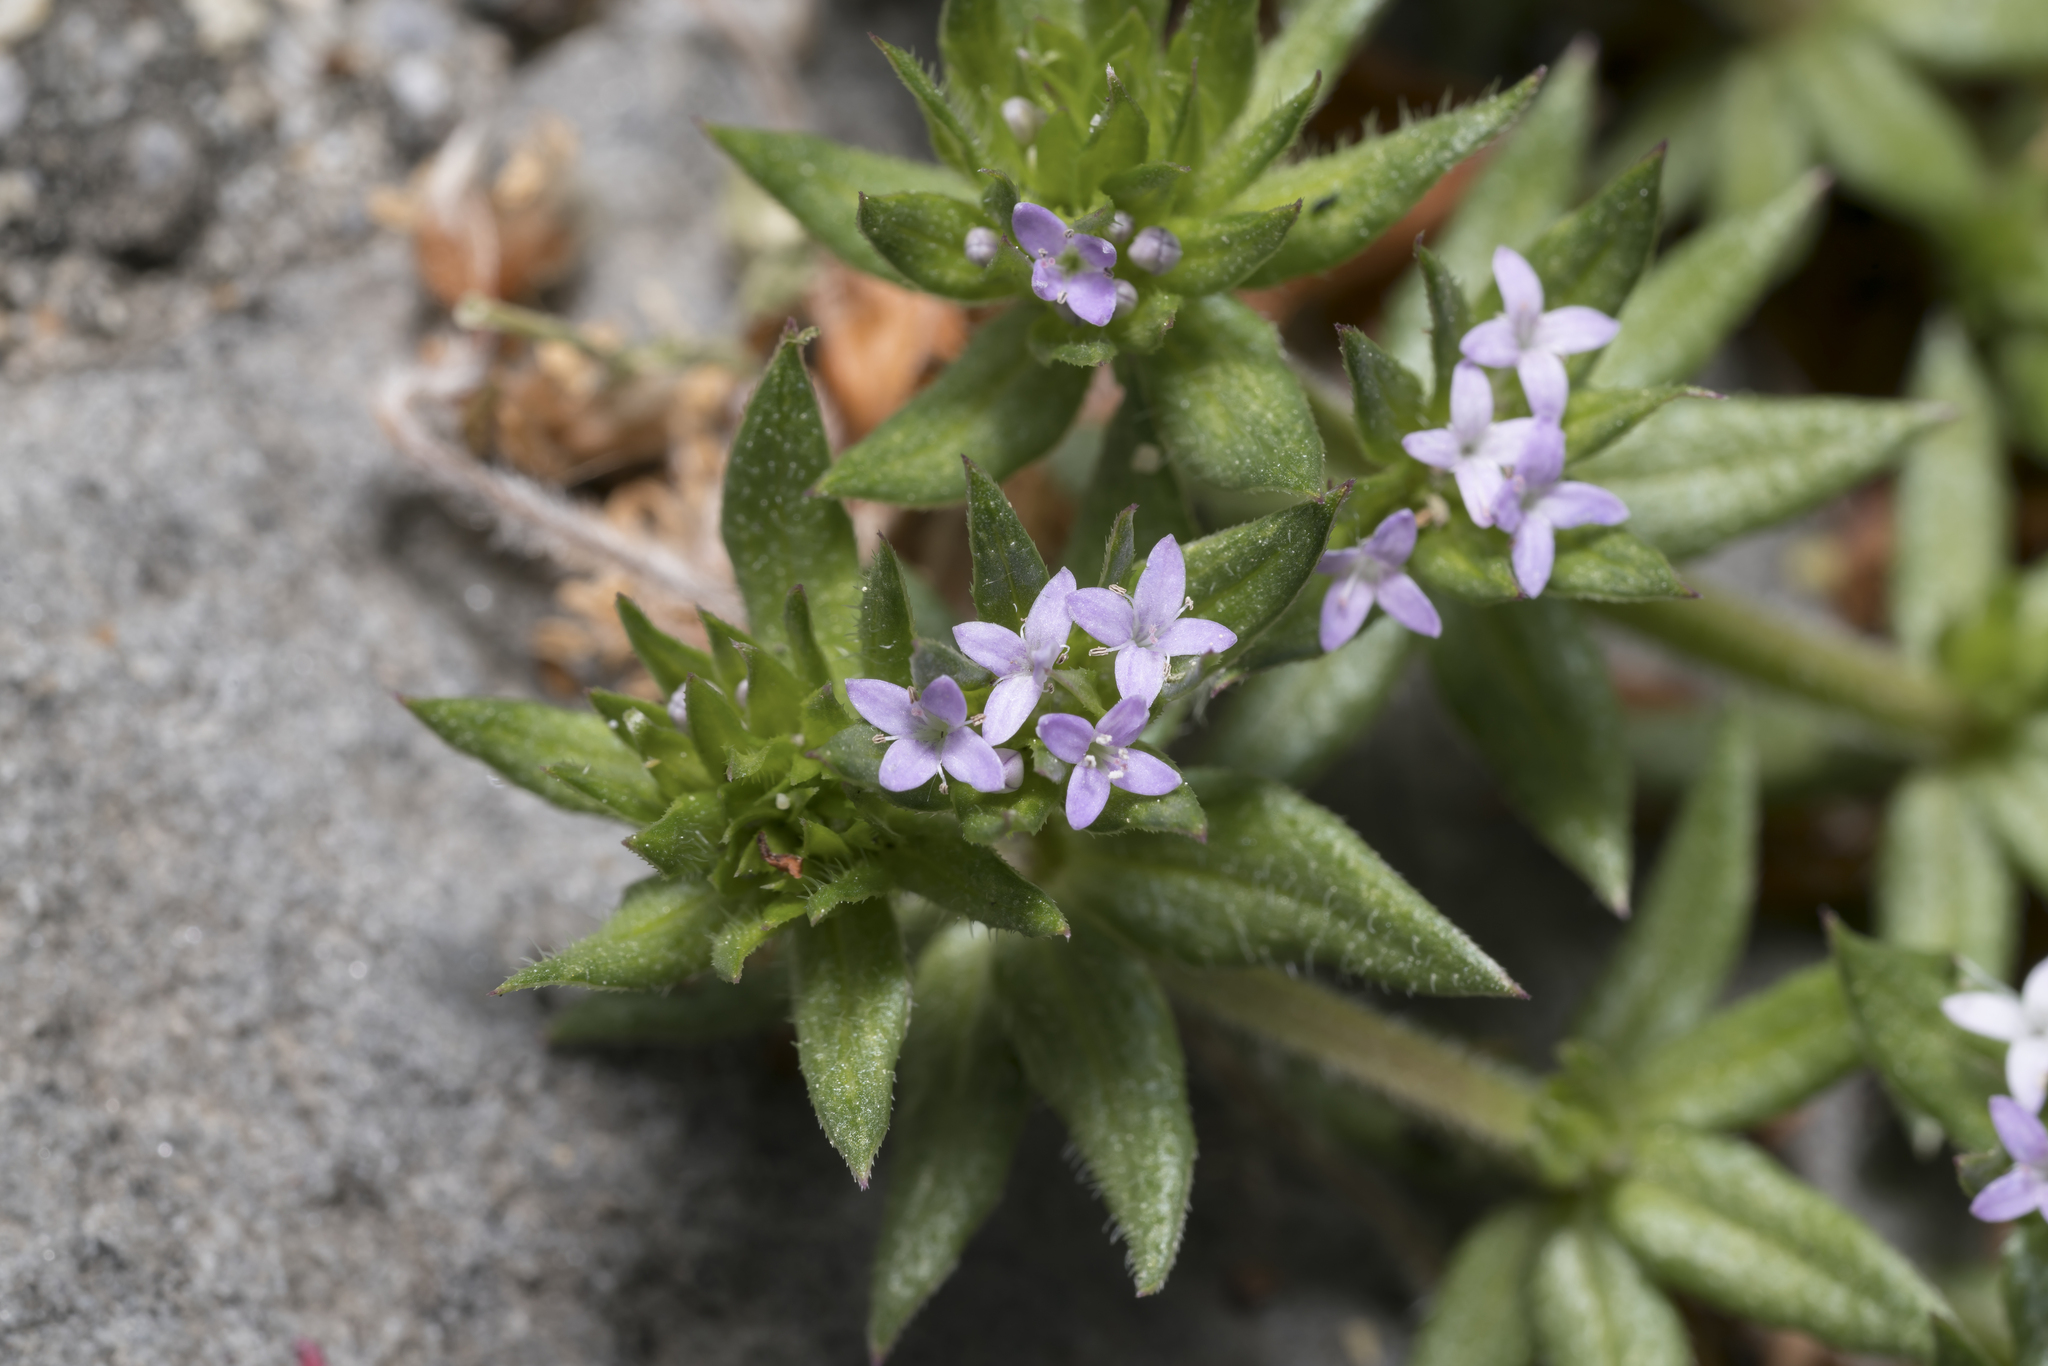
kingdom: Plantae
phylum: Tracheophyta
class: Magnoliopsida
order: Gentianales
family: Rubiaceae
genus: Sherardia
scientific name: Sherardia arvensis
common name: Field madder
